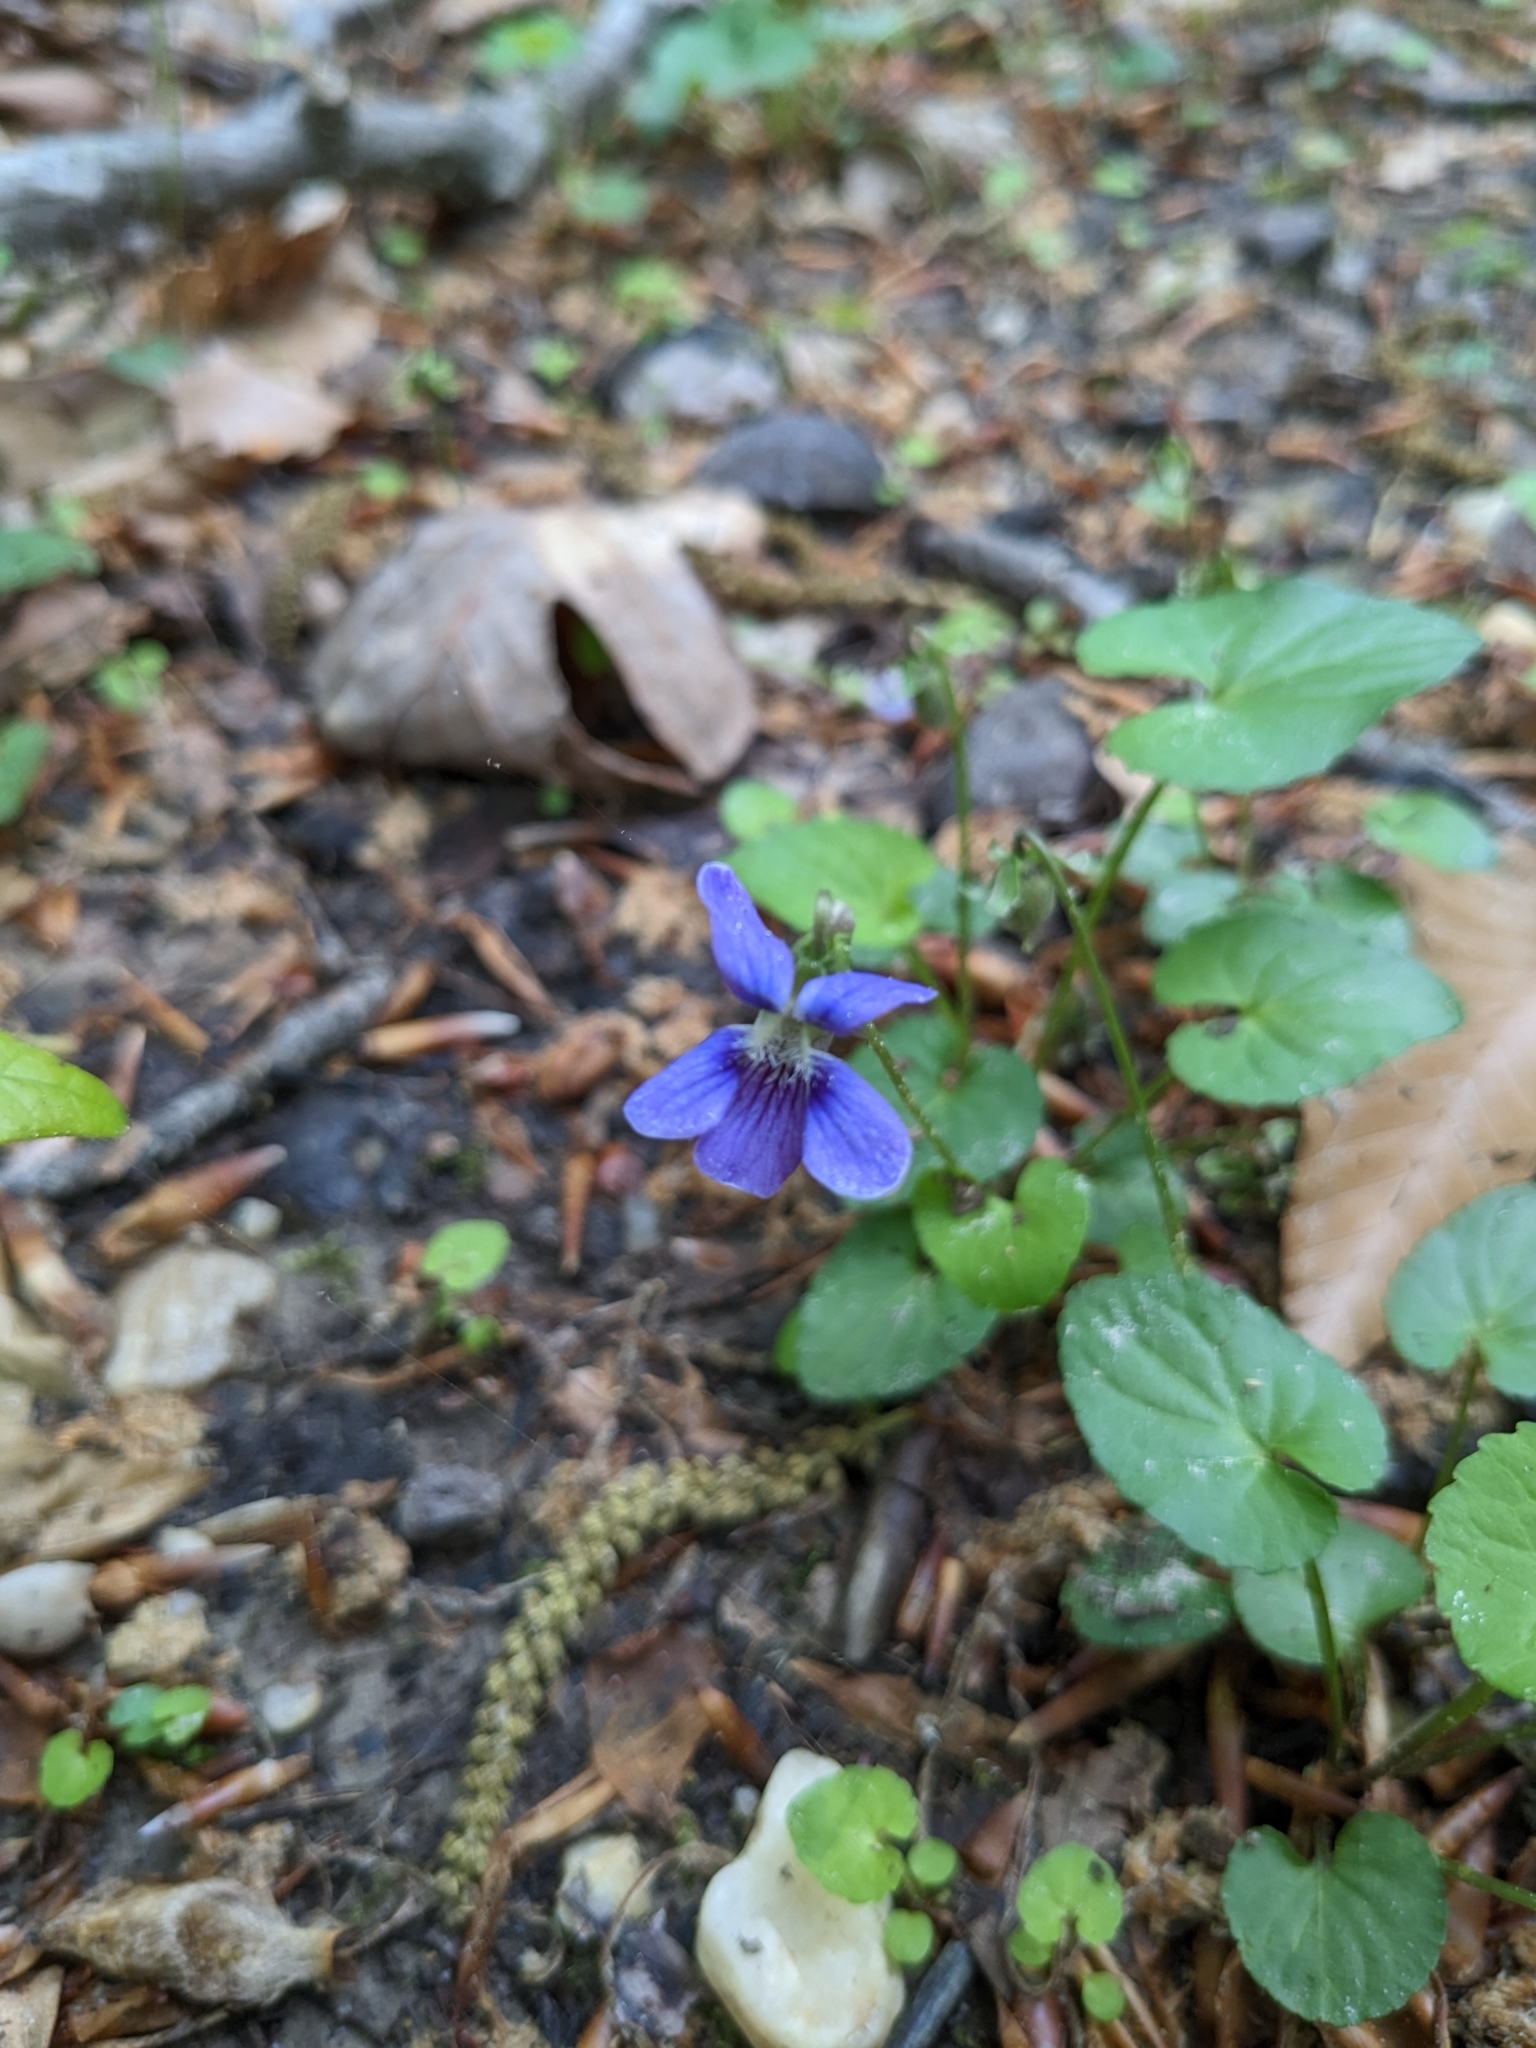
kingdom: Plantae
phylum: Tracheophyta
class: Magnoliopsida
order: Malpighiales
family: Violaceae
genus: Viola
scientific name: Viola sororia
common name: Dooryard violet
